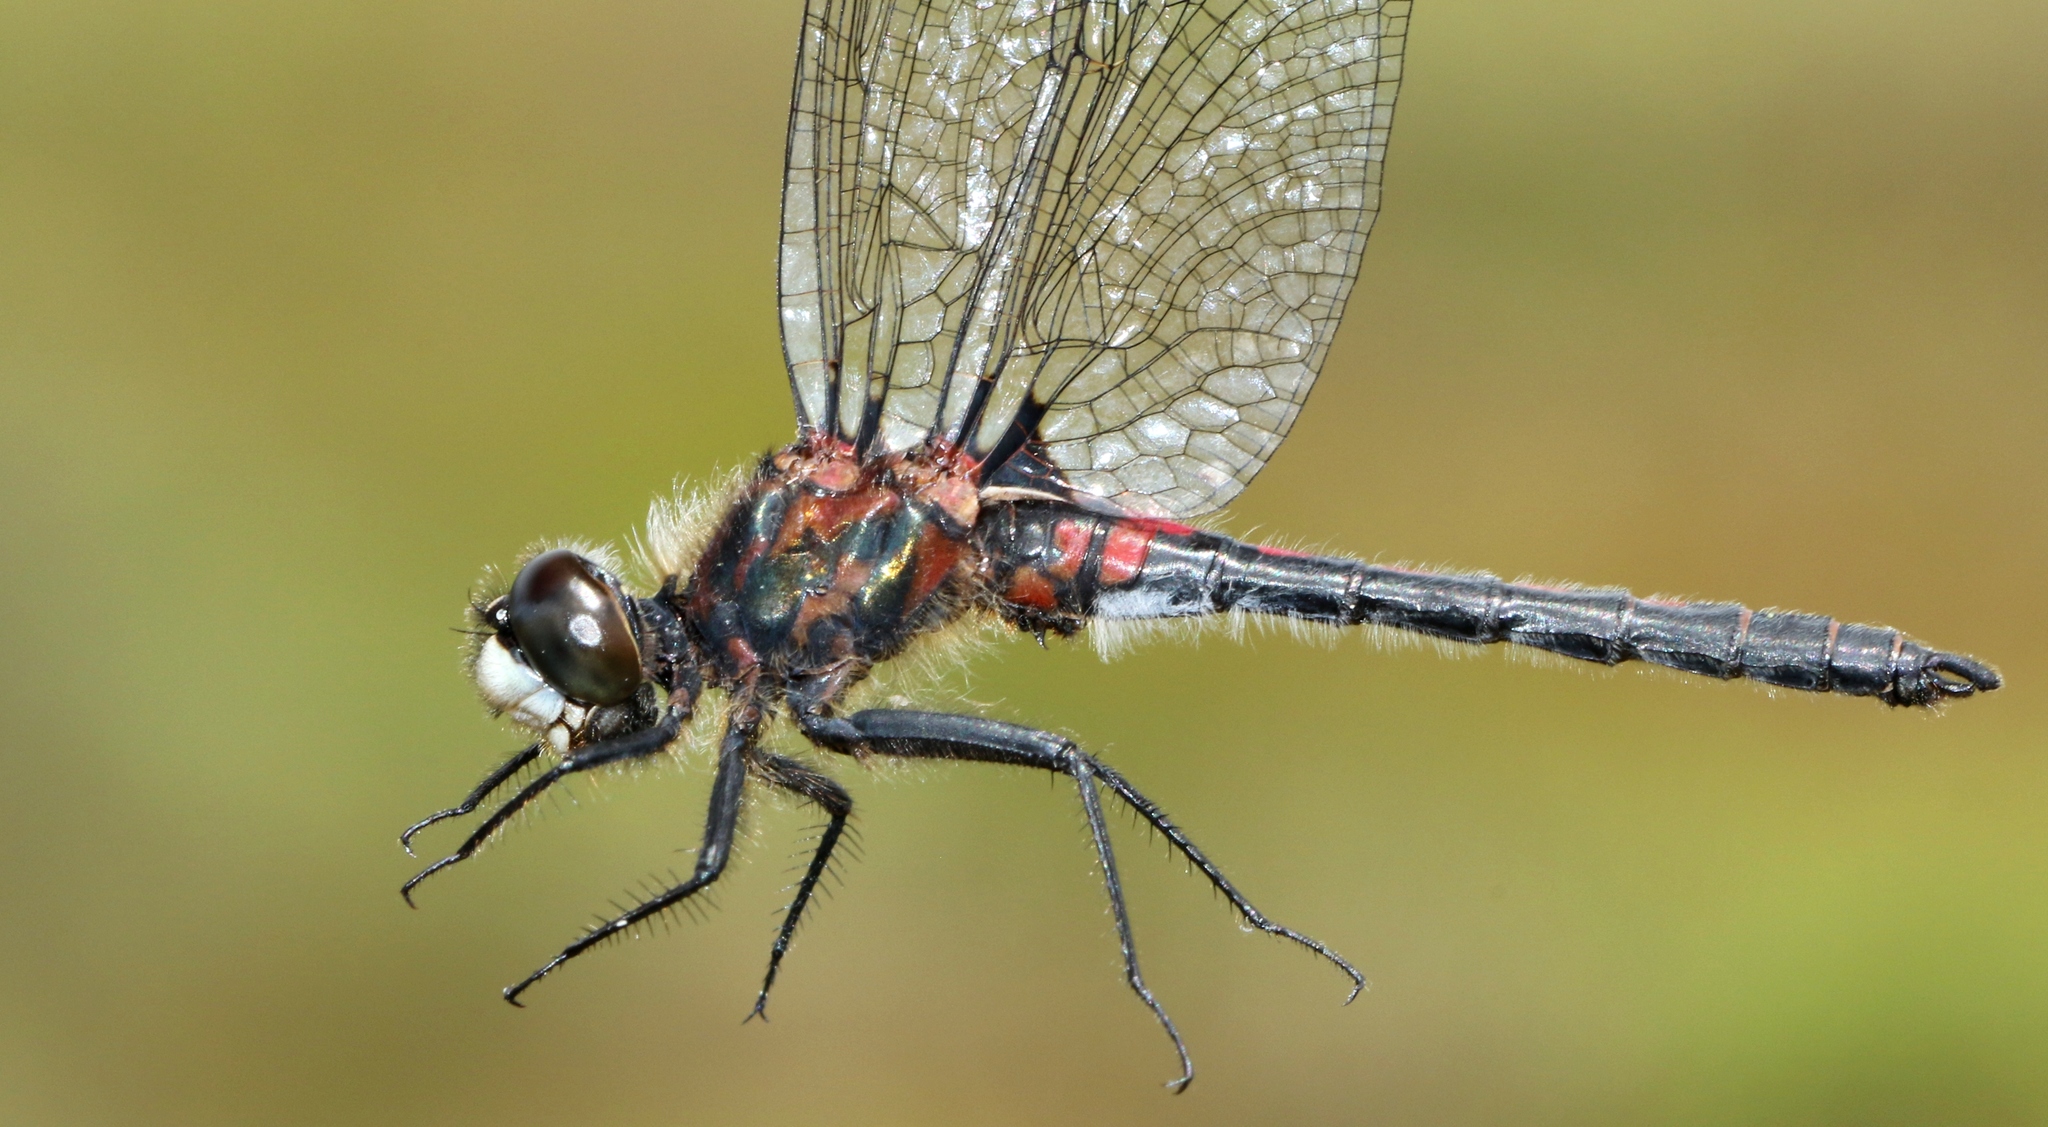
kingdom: Animalia
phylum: Arthropoda
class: Insecta
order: Odonata
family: Libellulidae
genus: Leucorrhinia
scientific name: Leucorrhinia hudsonica
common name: Hudsonian whiteface
